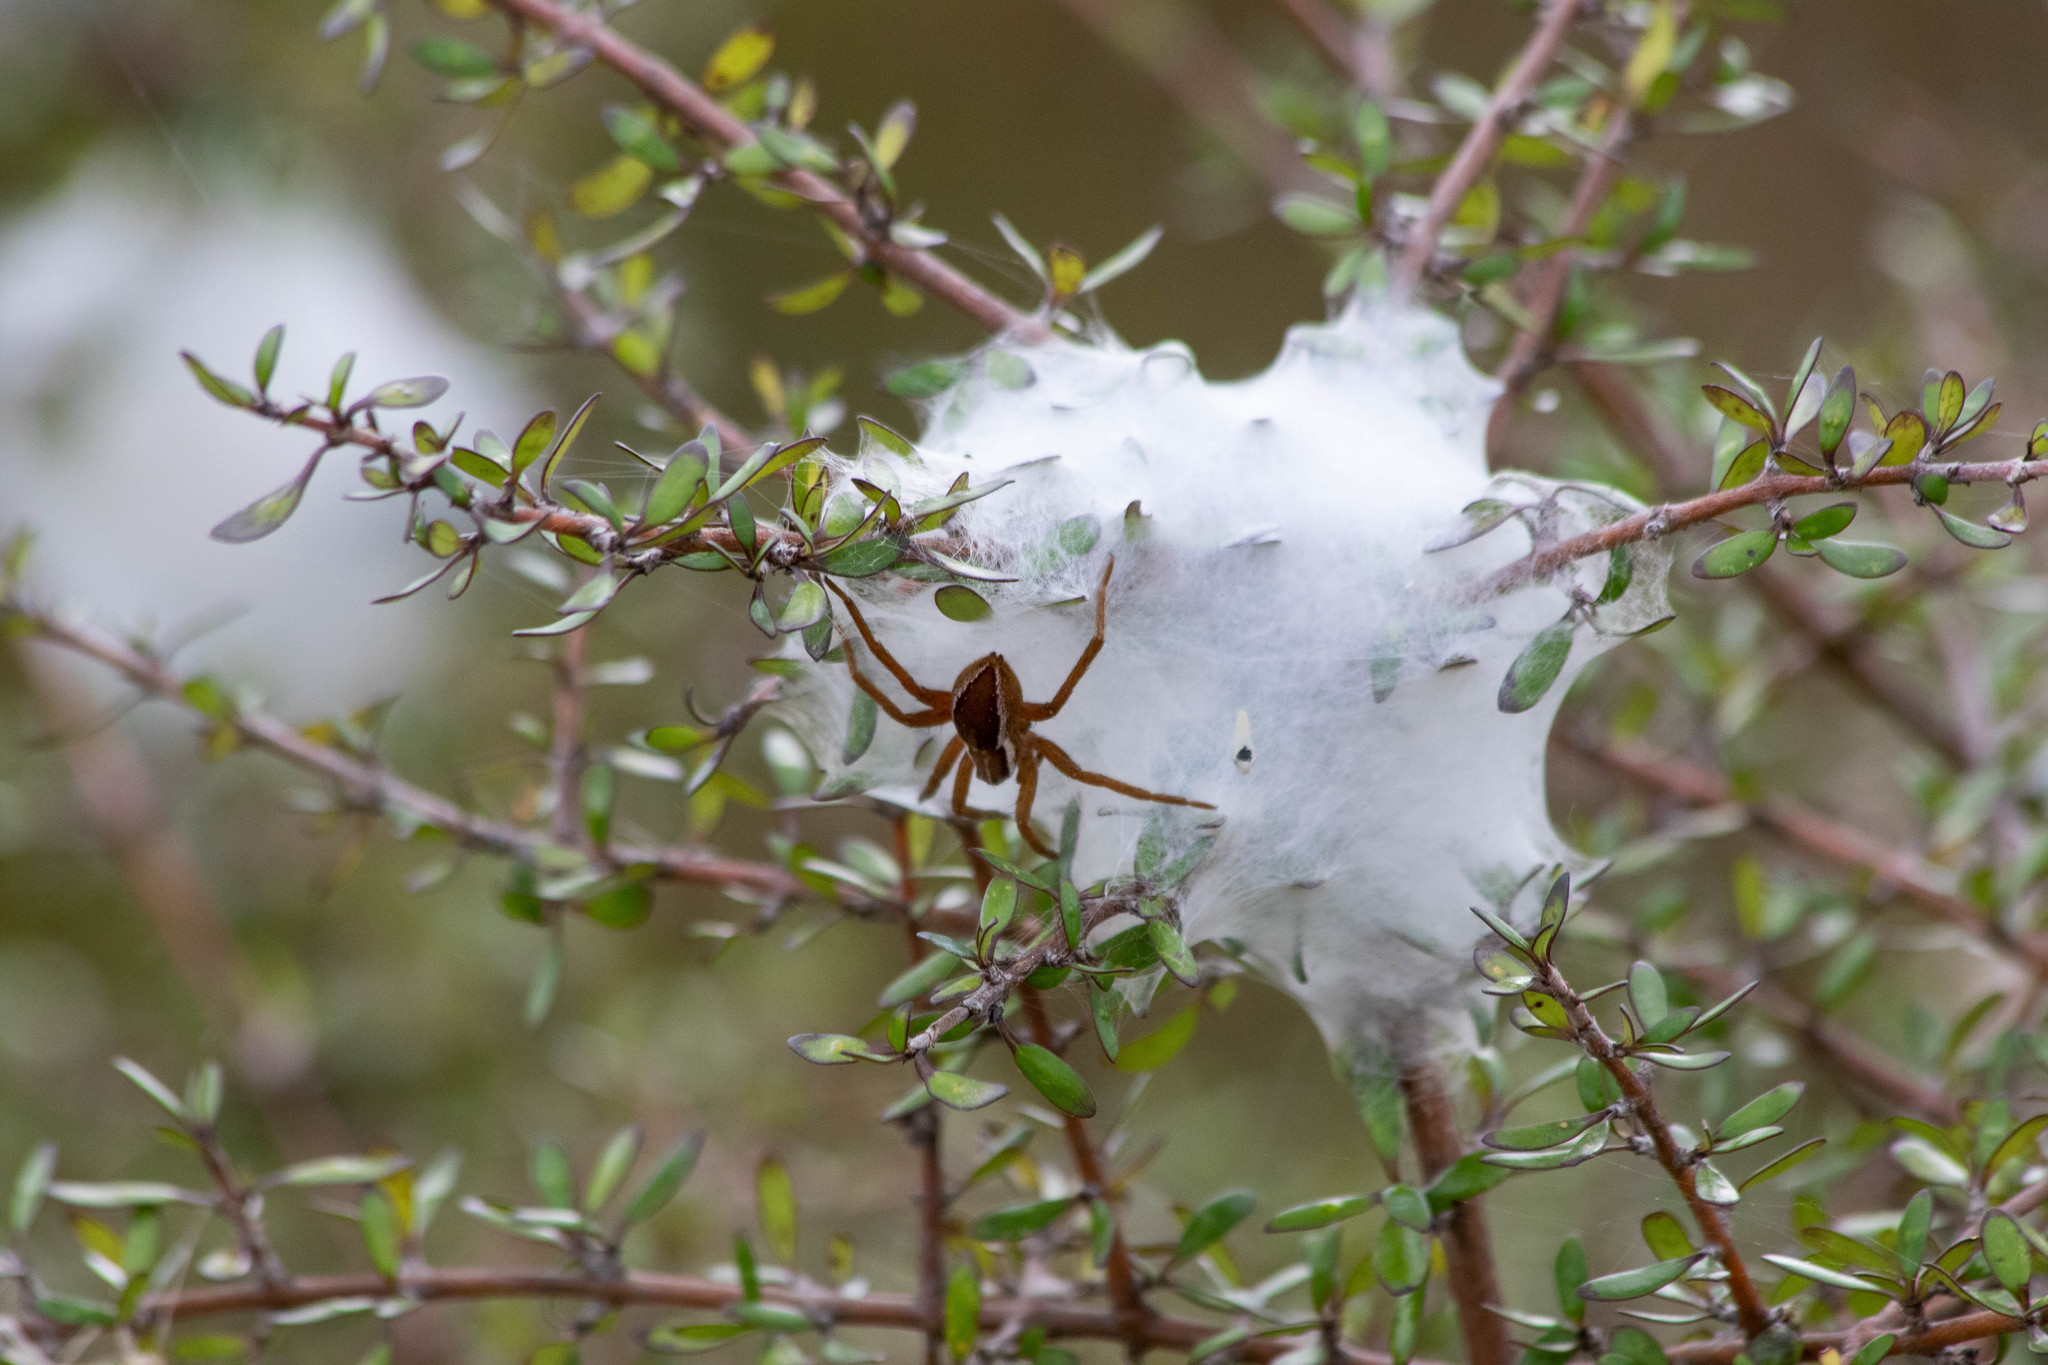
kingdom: Animalia
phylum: Arthropoda
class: Arachnida
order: Araneae
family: Pisauridae
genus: Dolomedes
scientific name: Dolomedes minor
